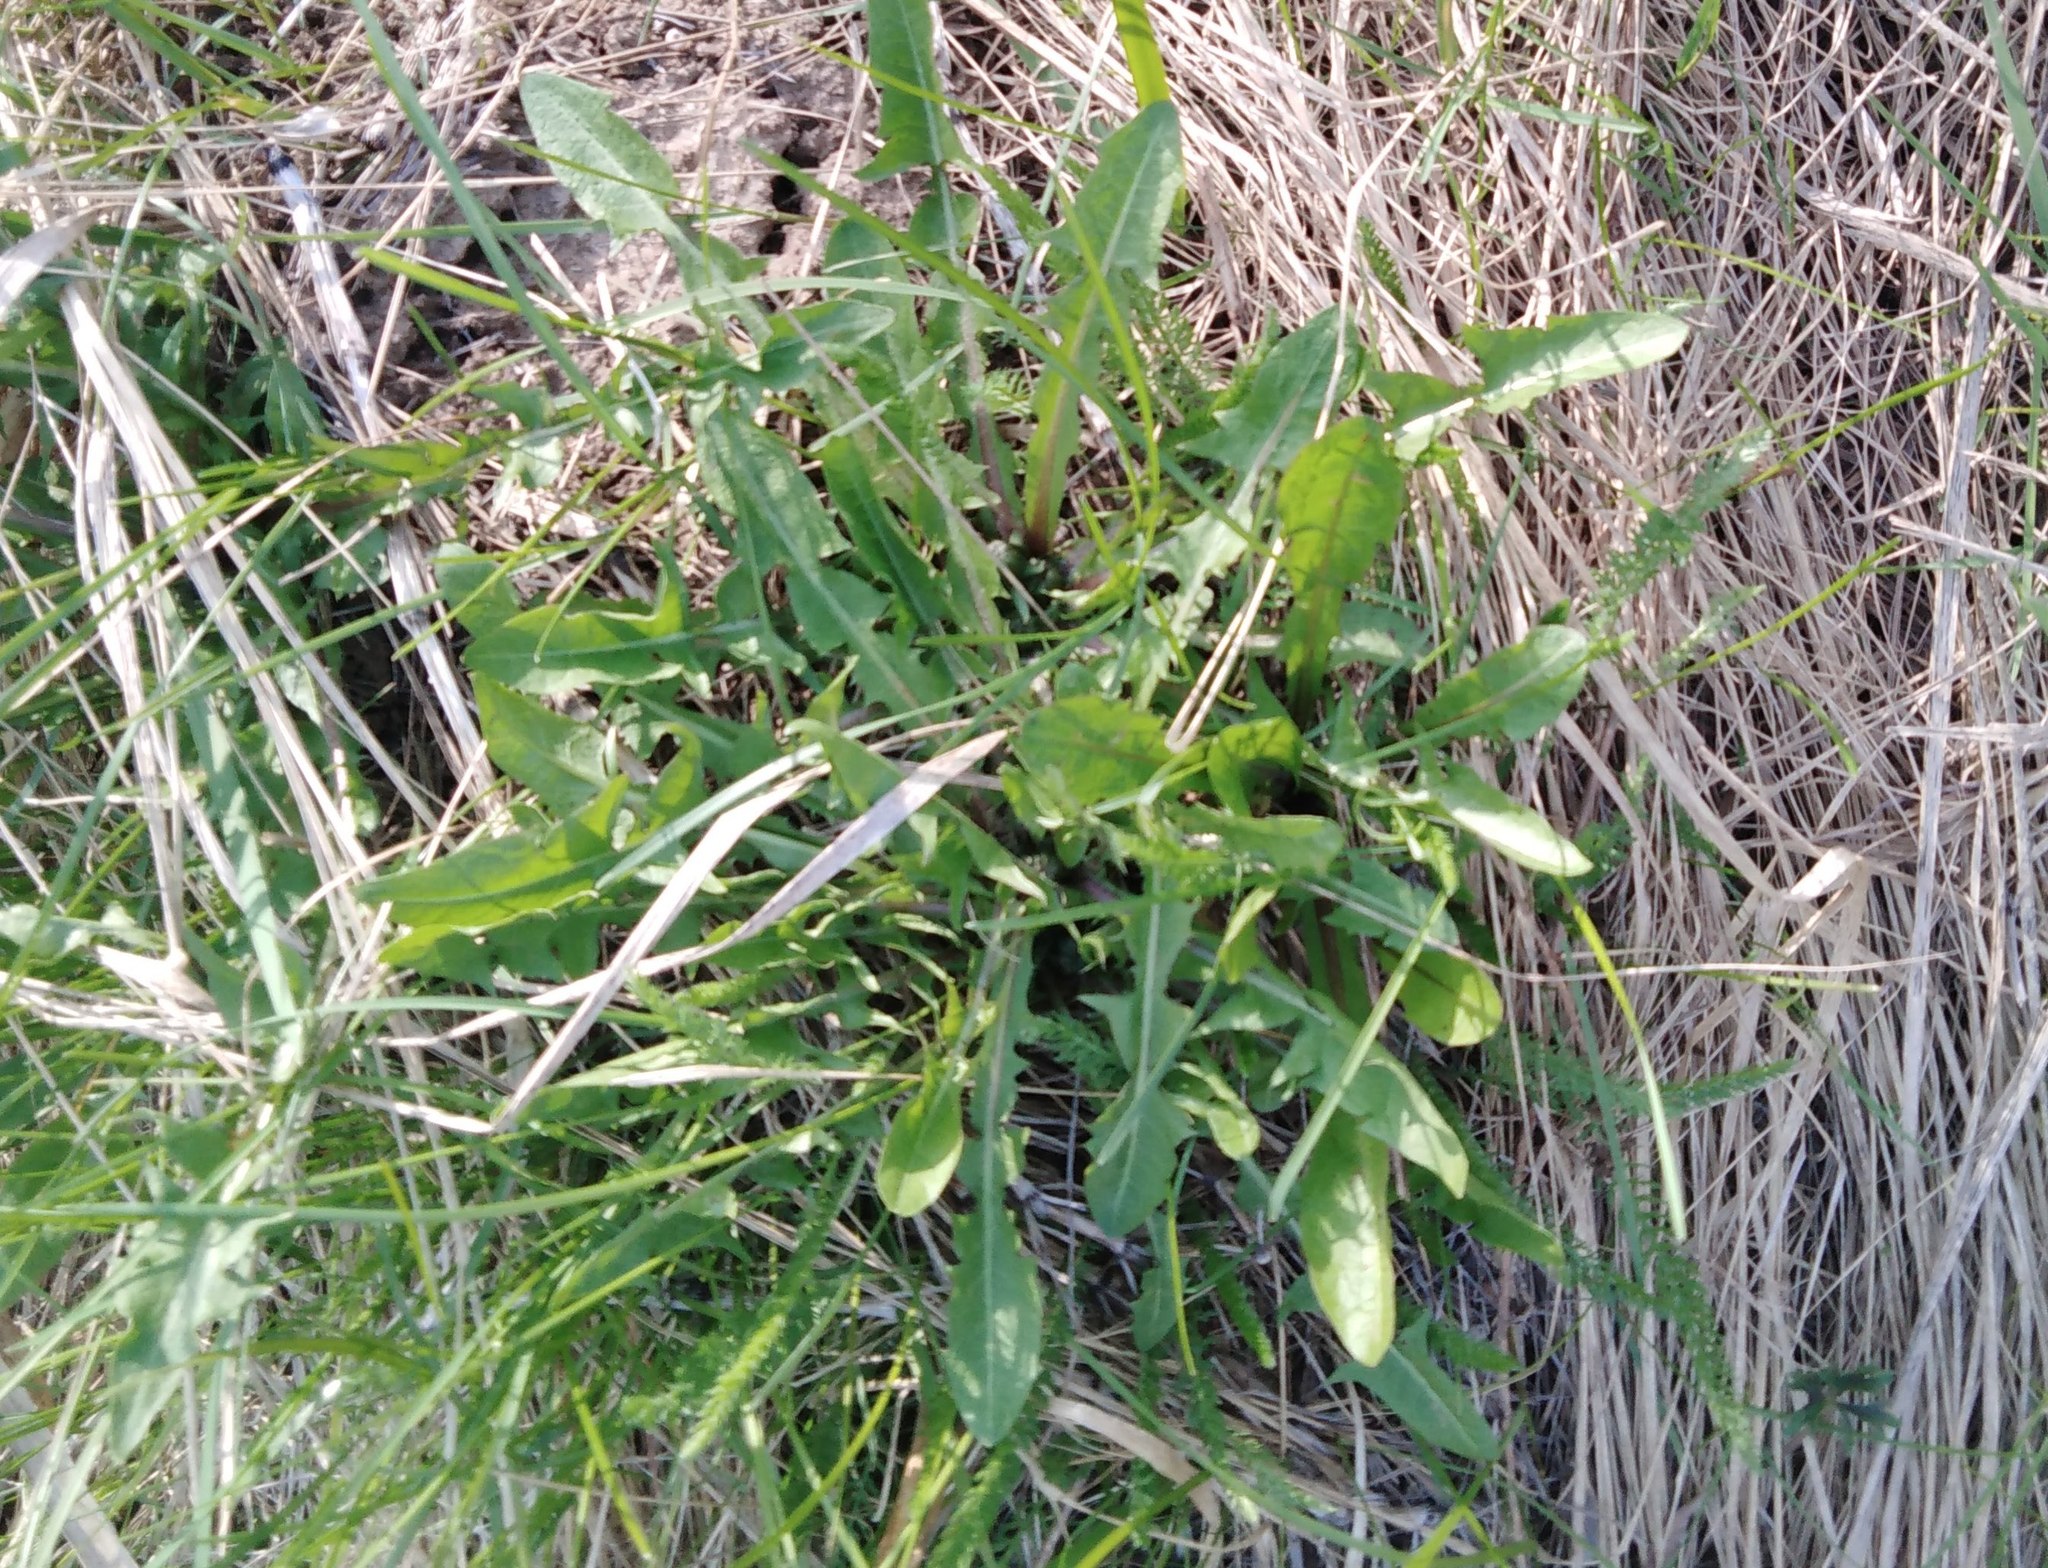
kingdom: Plantae
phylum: Tracheophyta
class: Magnoliopsida
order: Asterales
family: Asteraceae
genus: Taraxacum
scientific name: Taraxacum officinale
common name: Common dandelion
